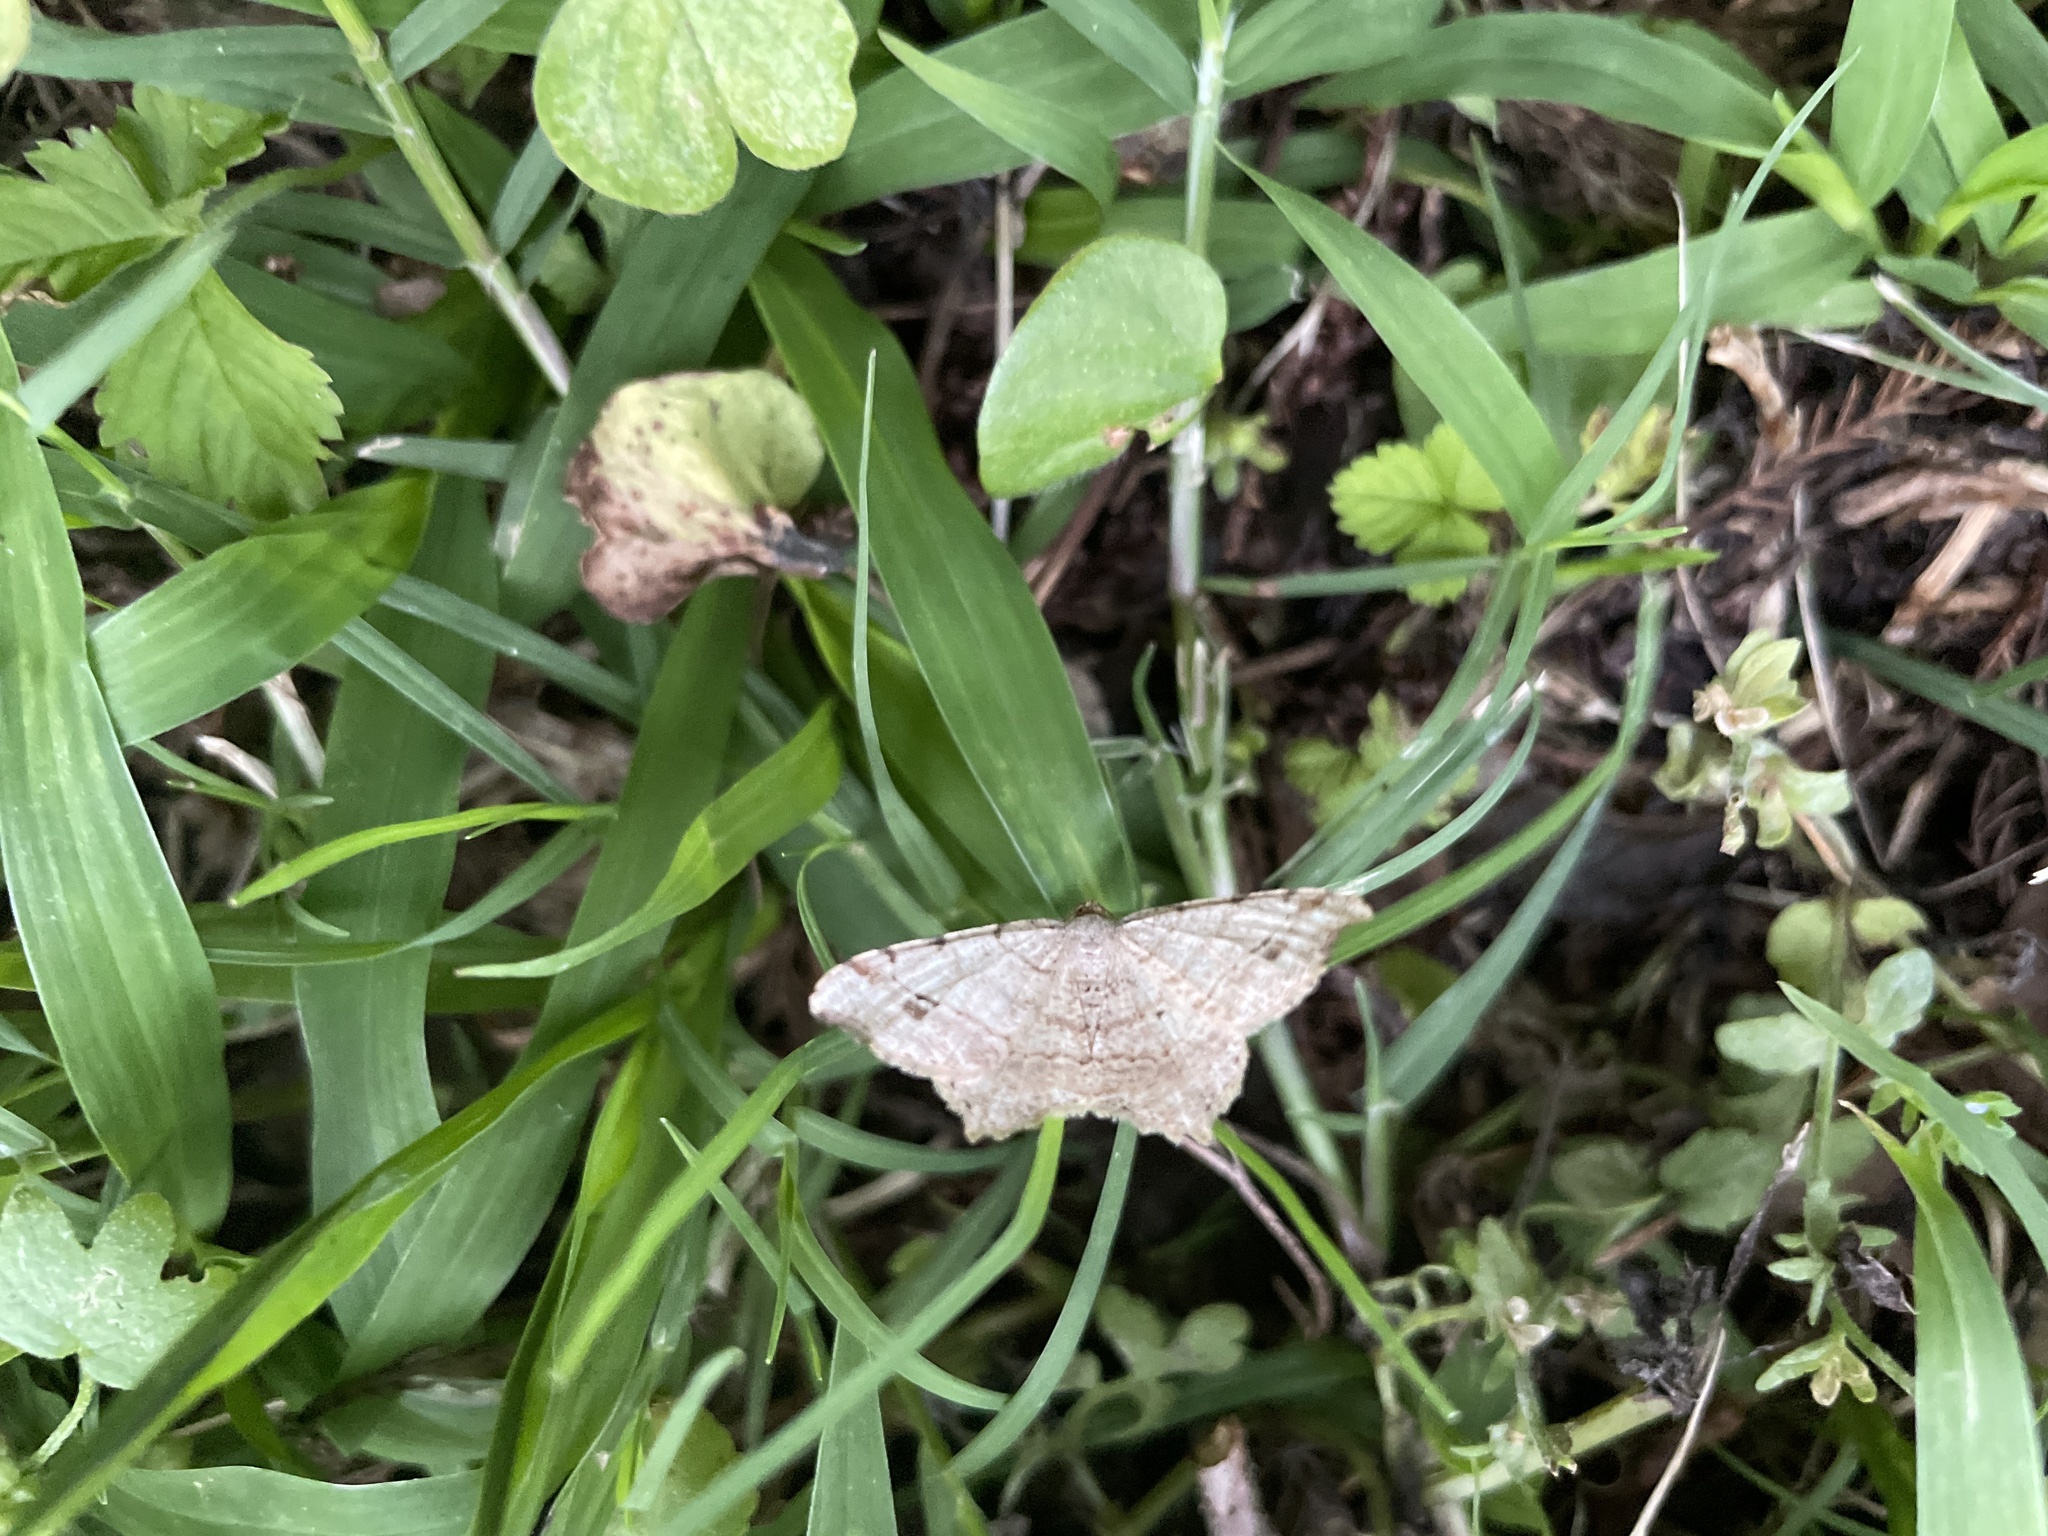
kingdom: Animalia
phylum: Arthropoda
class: Insecta
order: Lepidoptera
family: Geometridae
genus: Macaria
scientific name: Macaria aequiferaria
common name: Common angle
